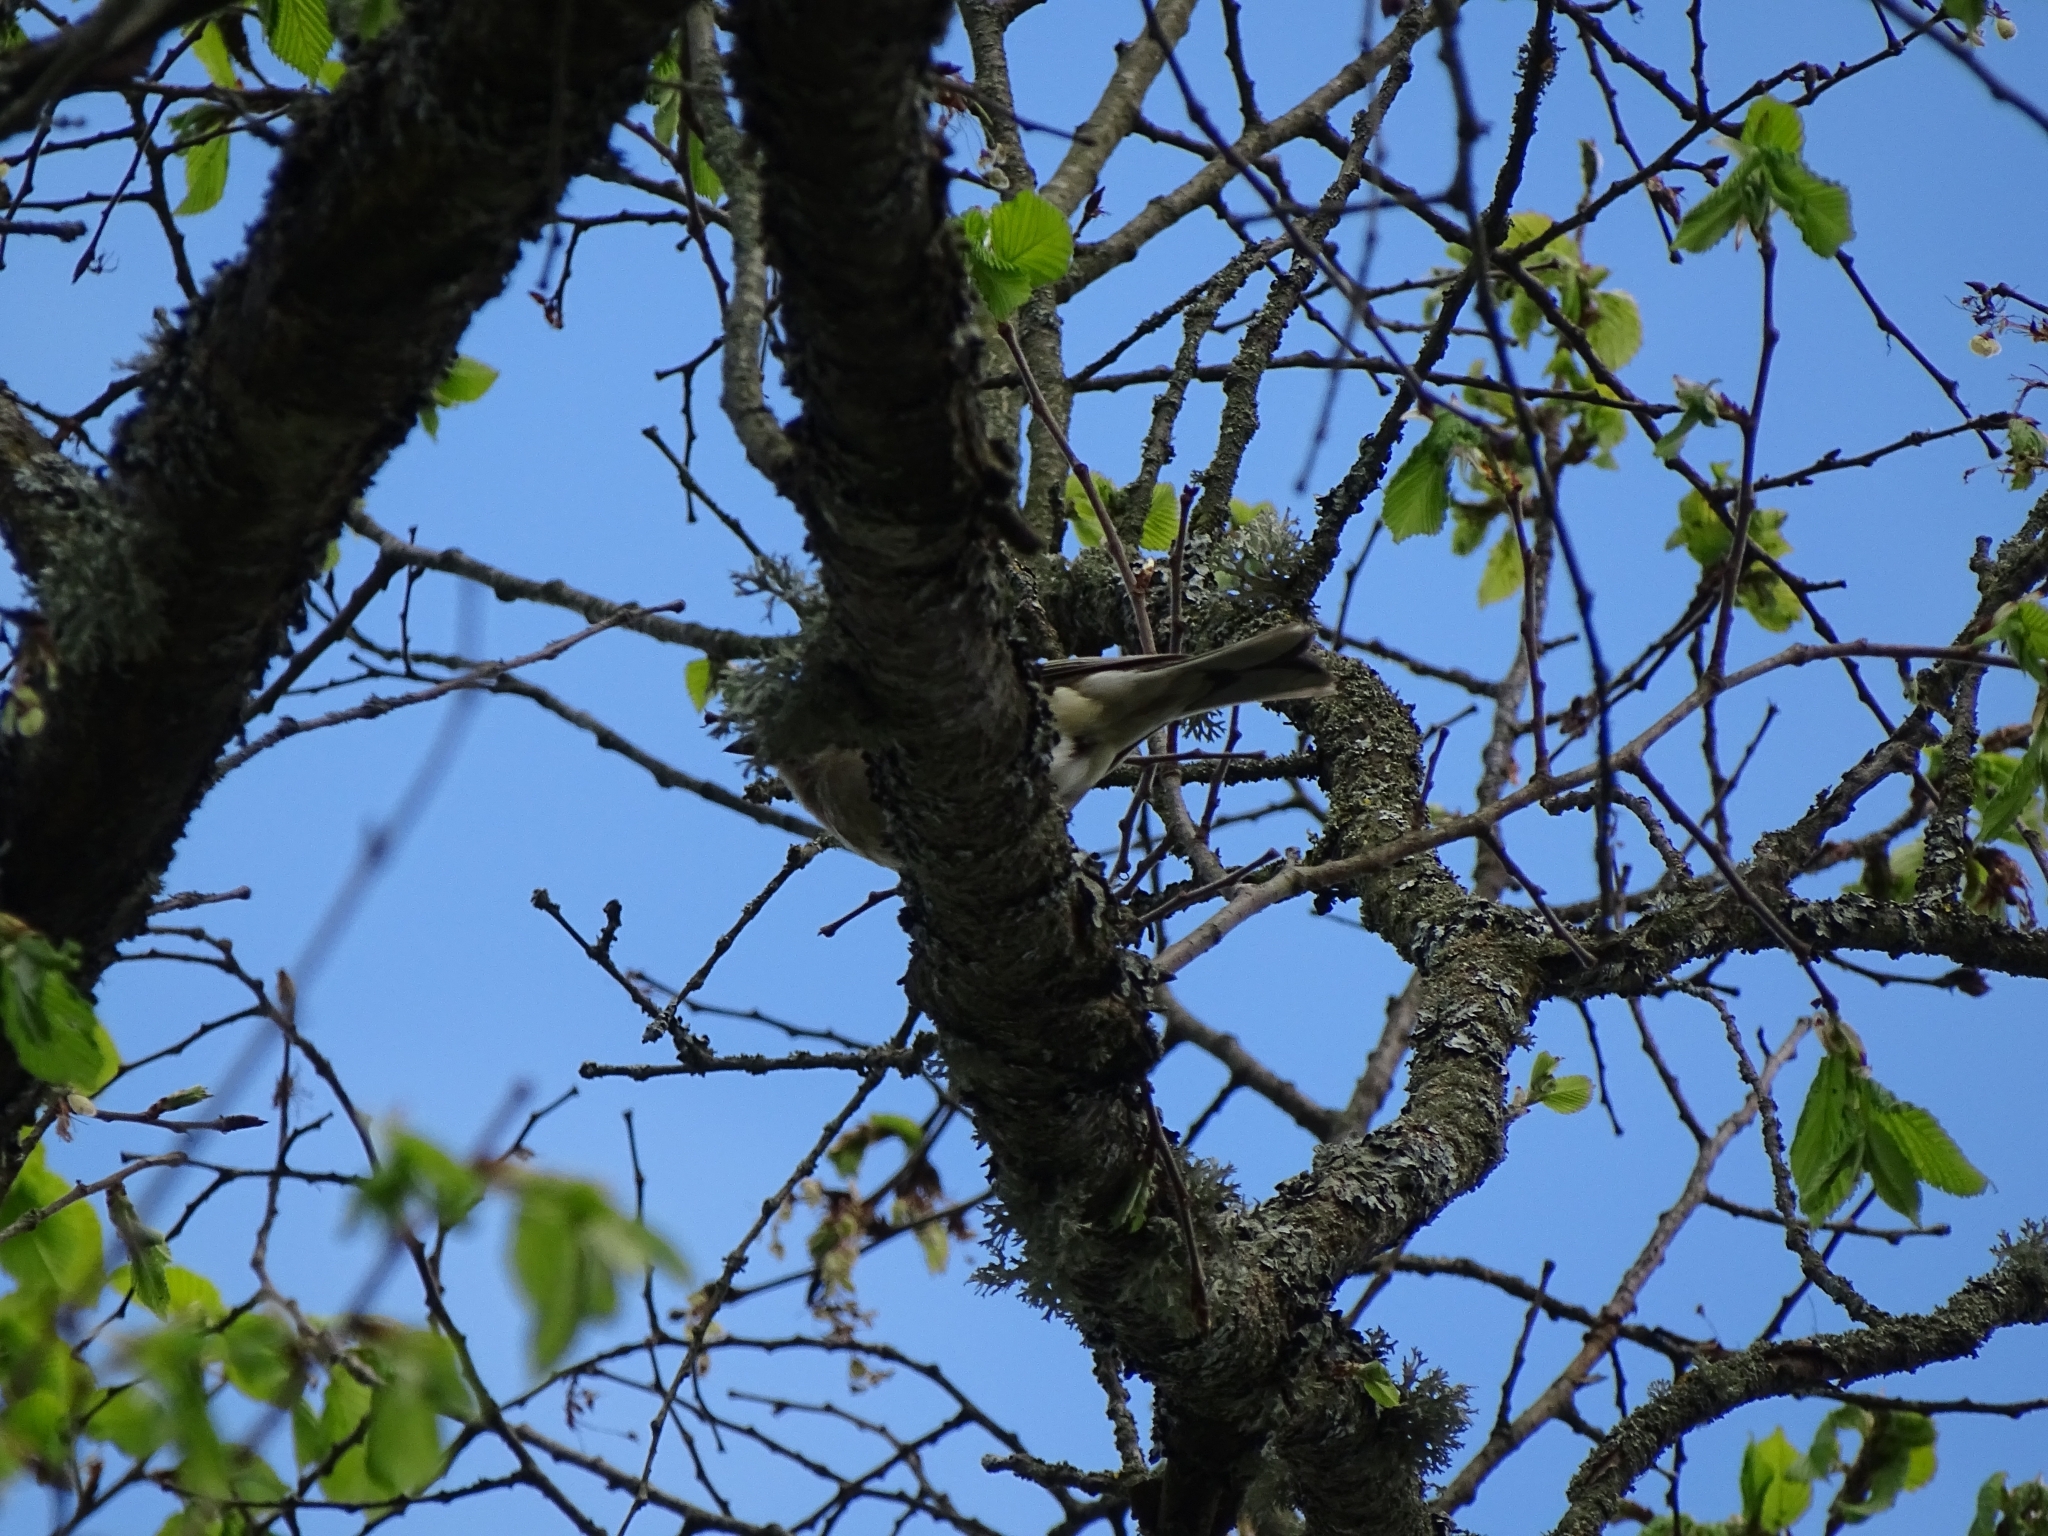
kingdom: Animalia
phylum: Chordata
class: Aves
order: Passeriformes
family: Fringillidae
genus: Fringilla
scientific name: Fringilla coelebs
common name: Common chaffinch
